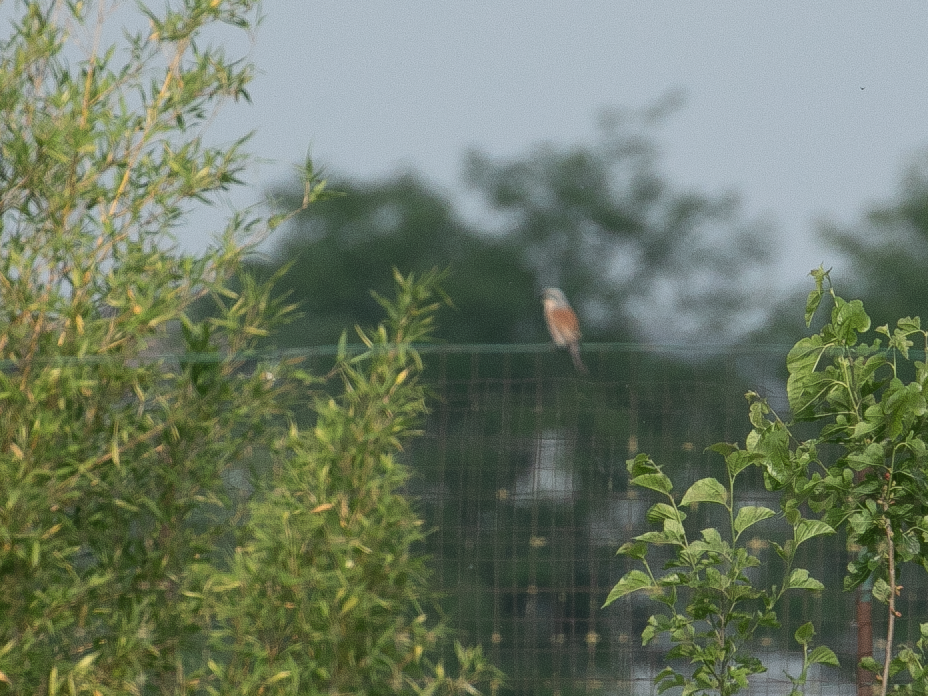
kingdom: Animalia
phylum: Chordata
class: Aves
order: Passeriformes
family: Laniidae
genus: Lanius
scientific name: Lanius collurio
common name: Red-backed shrike
